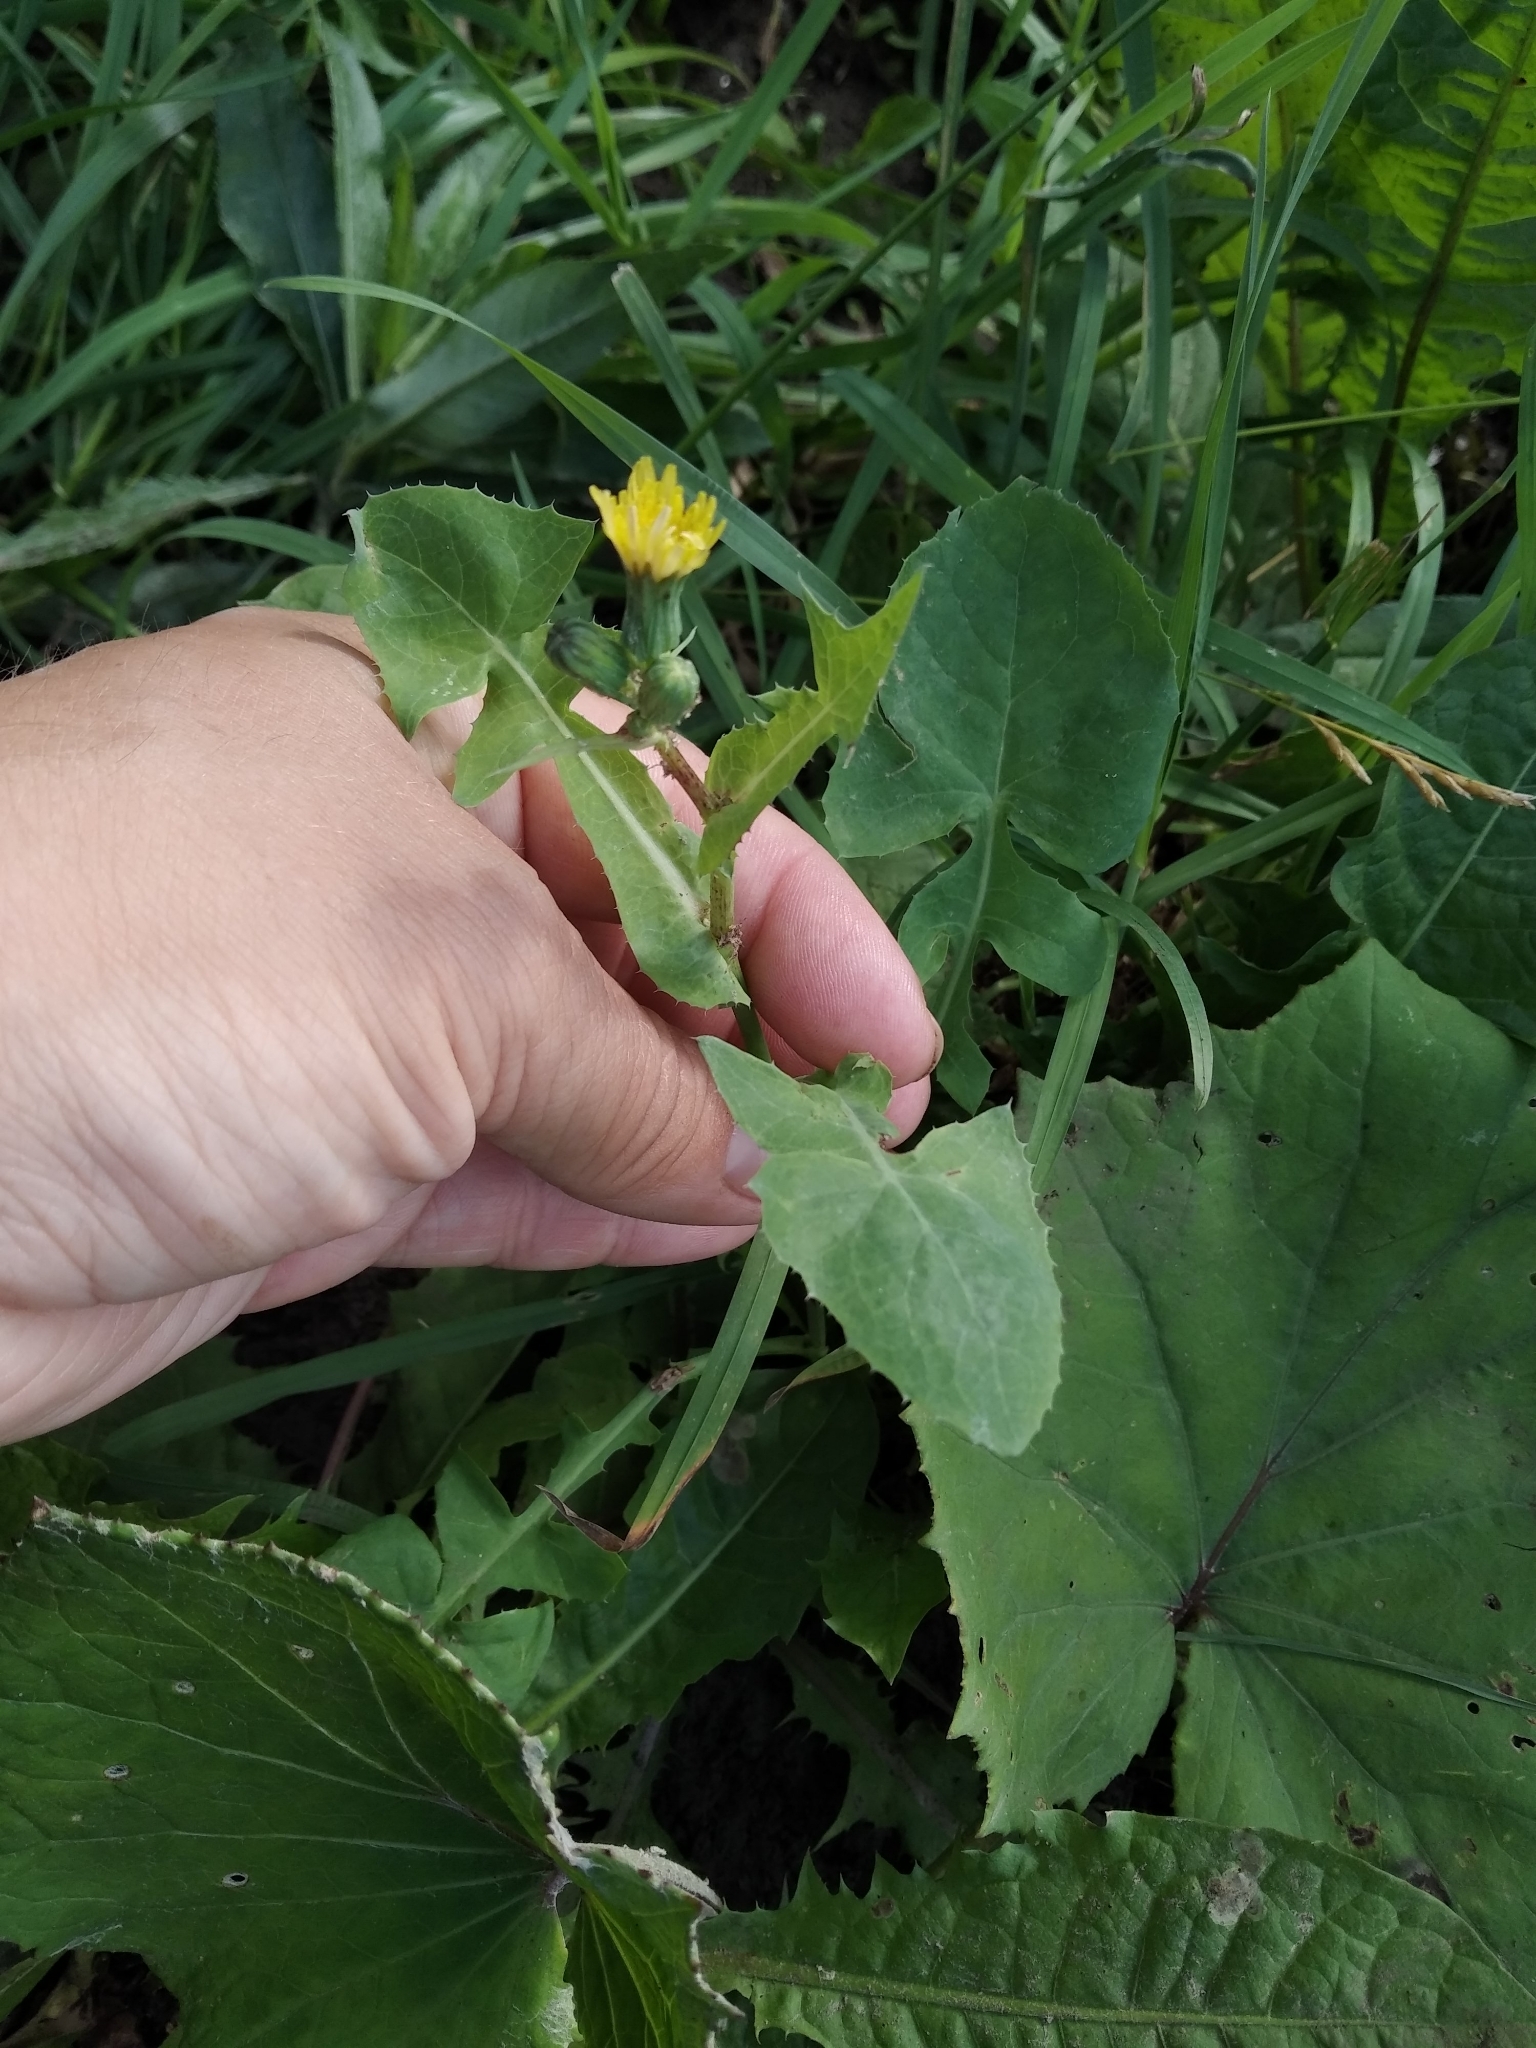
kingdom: Plantae
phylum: Tracheophyta
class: Magnoliopsida
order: Asterales
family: Asteraceae
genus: Sonchus
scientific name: Sonchus oleraceus
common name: Common sowthistle
